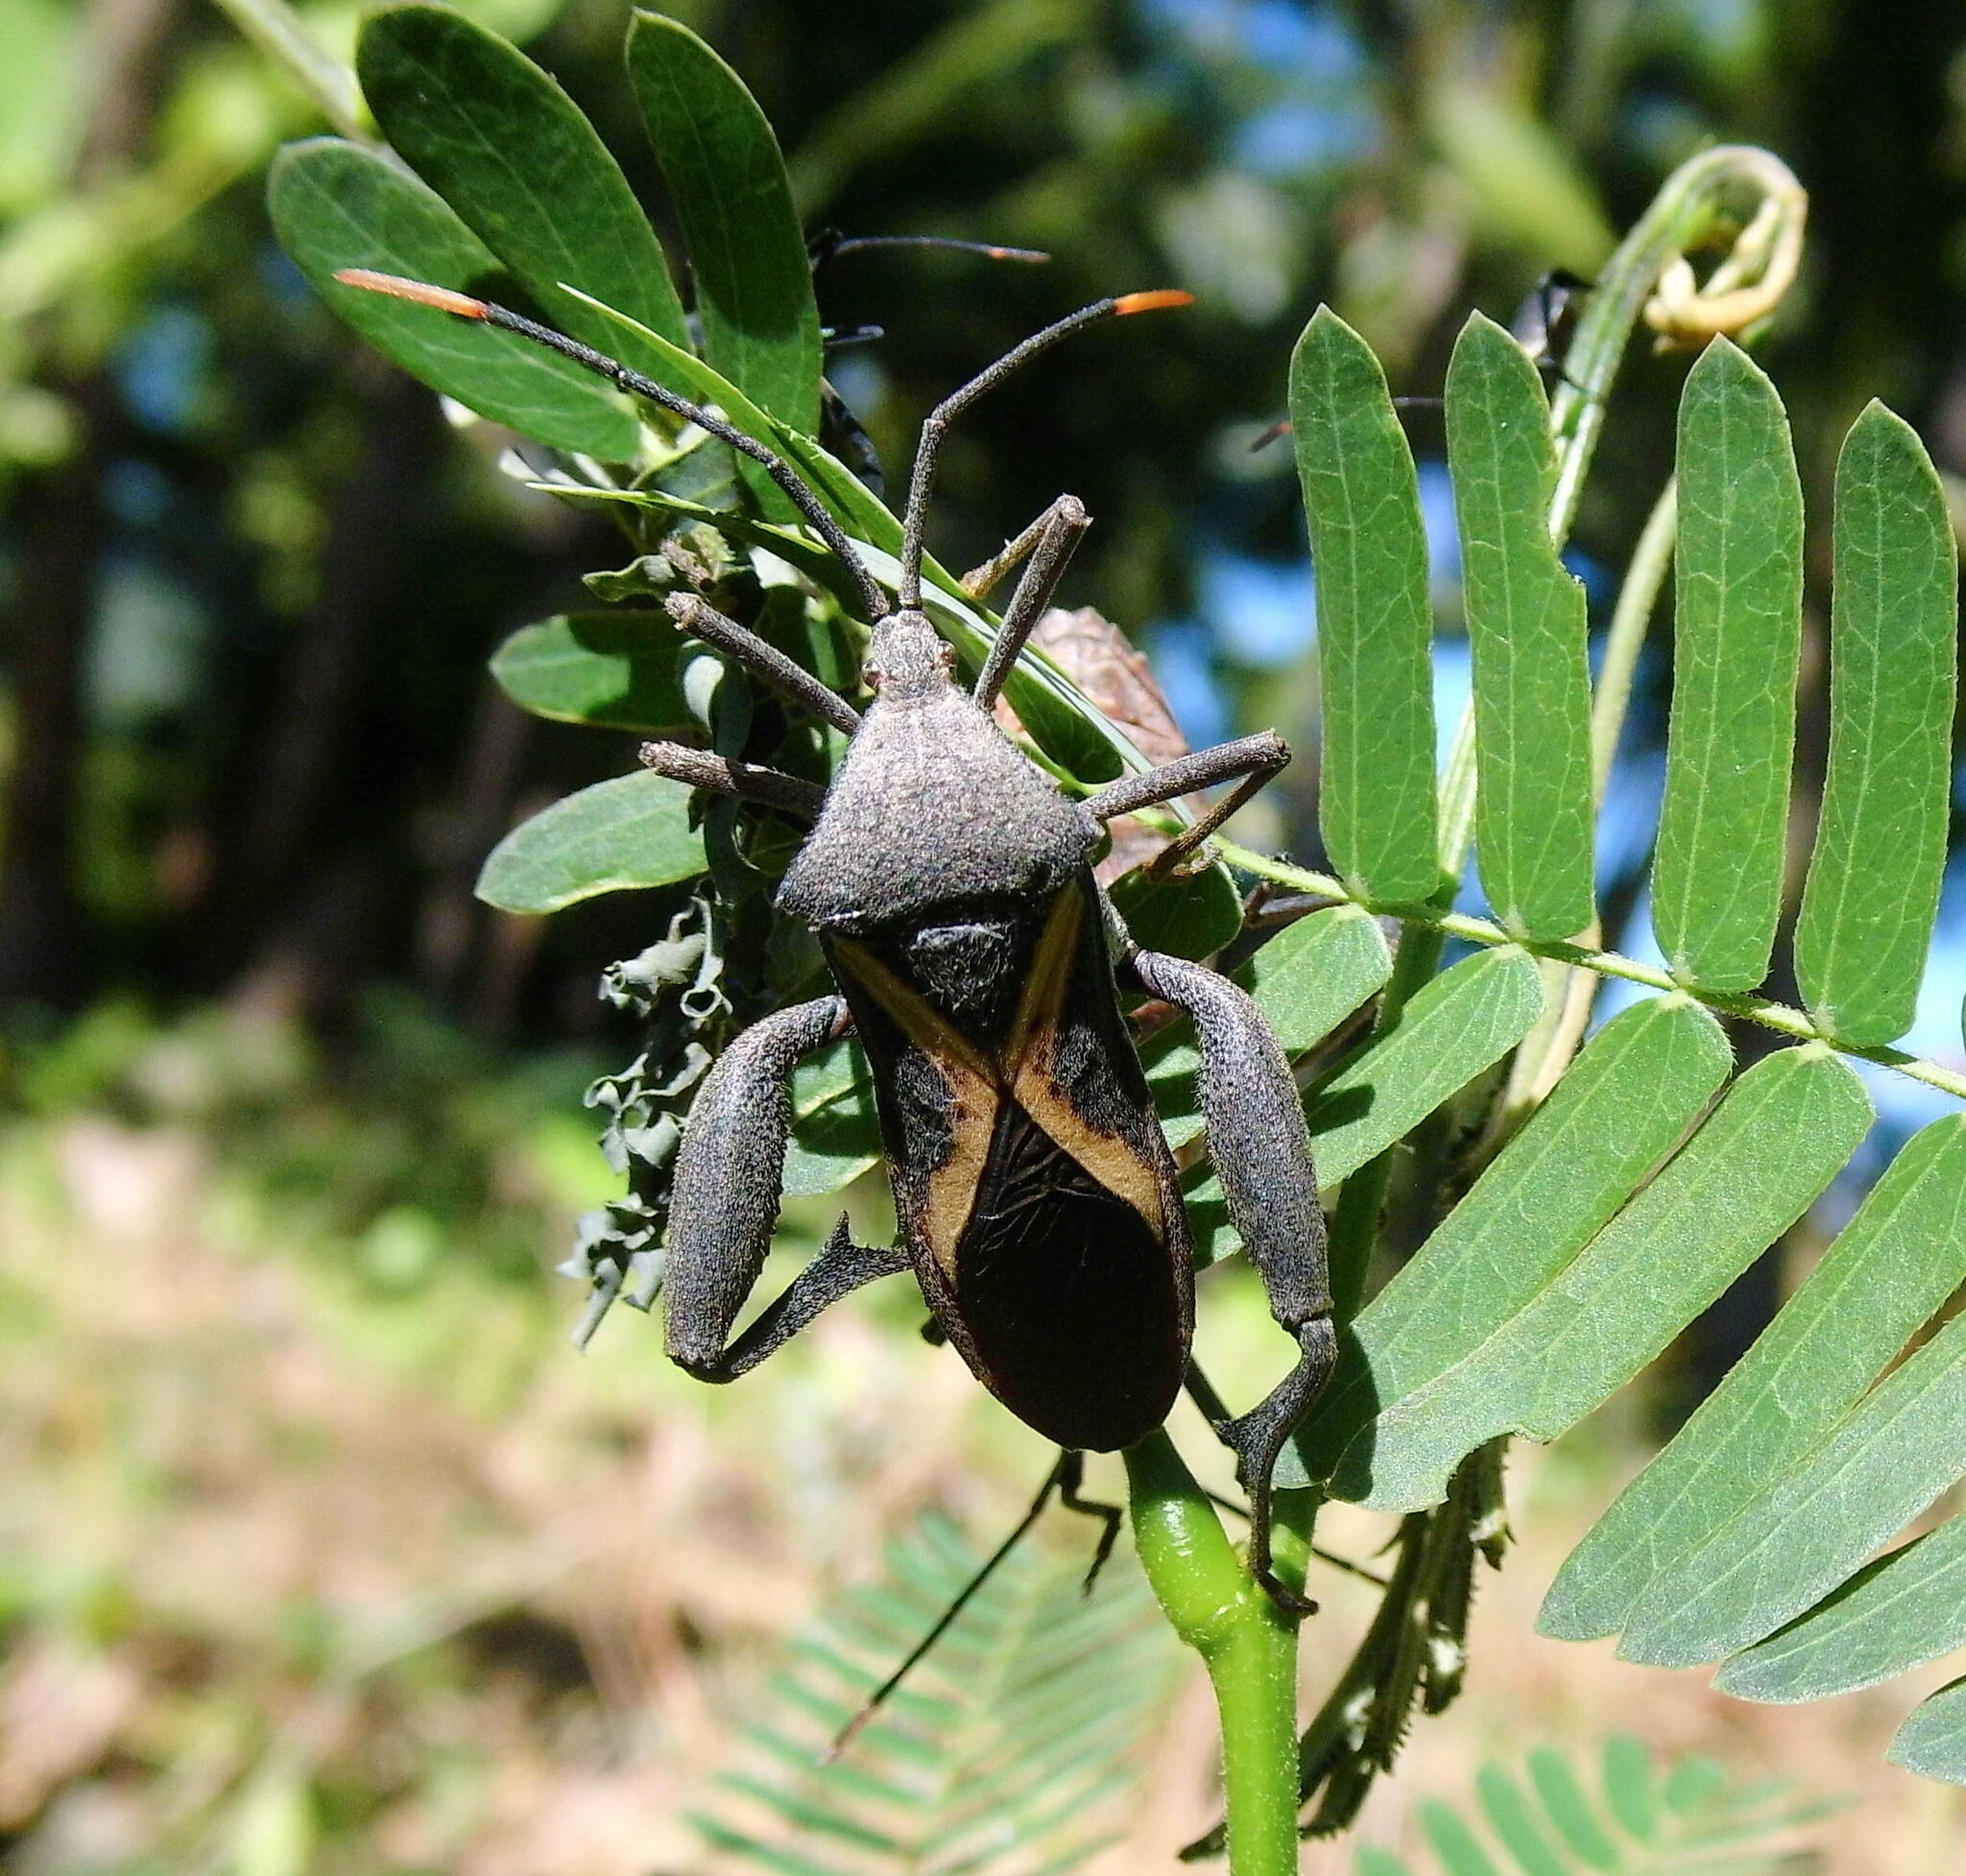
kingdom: Animalia
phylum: Arthropoda
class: Insecta
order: Hemiptera
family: Coreidae
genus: Mictis
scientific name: Mictis profana
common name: Crusader bug
